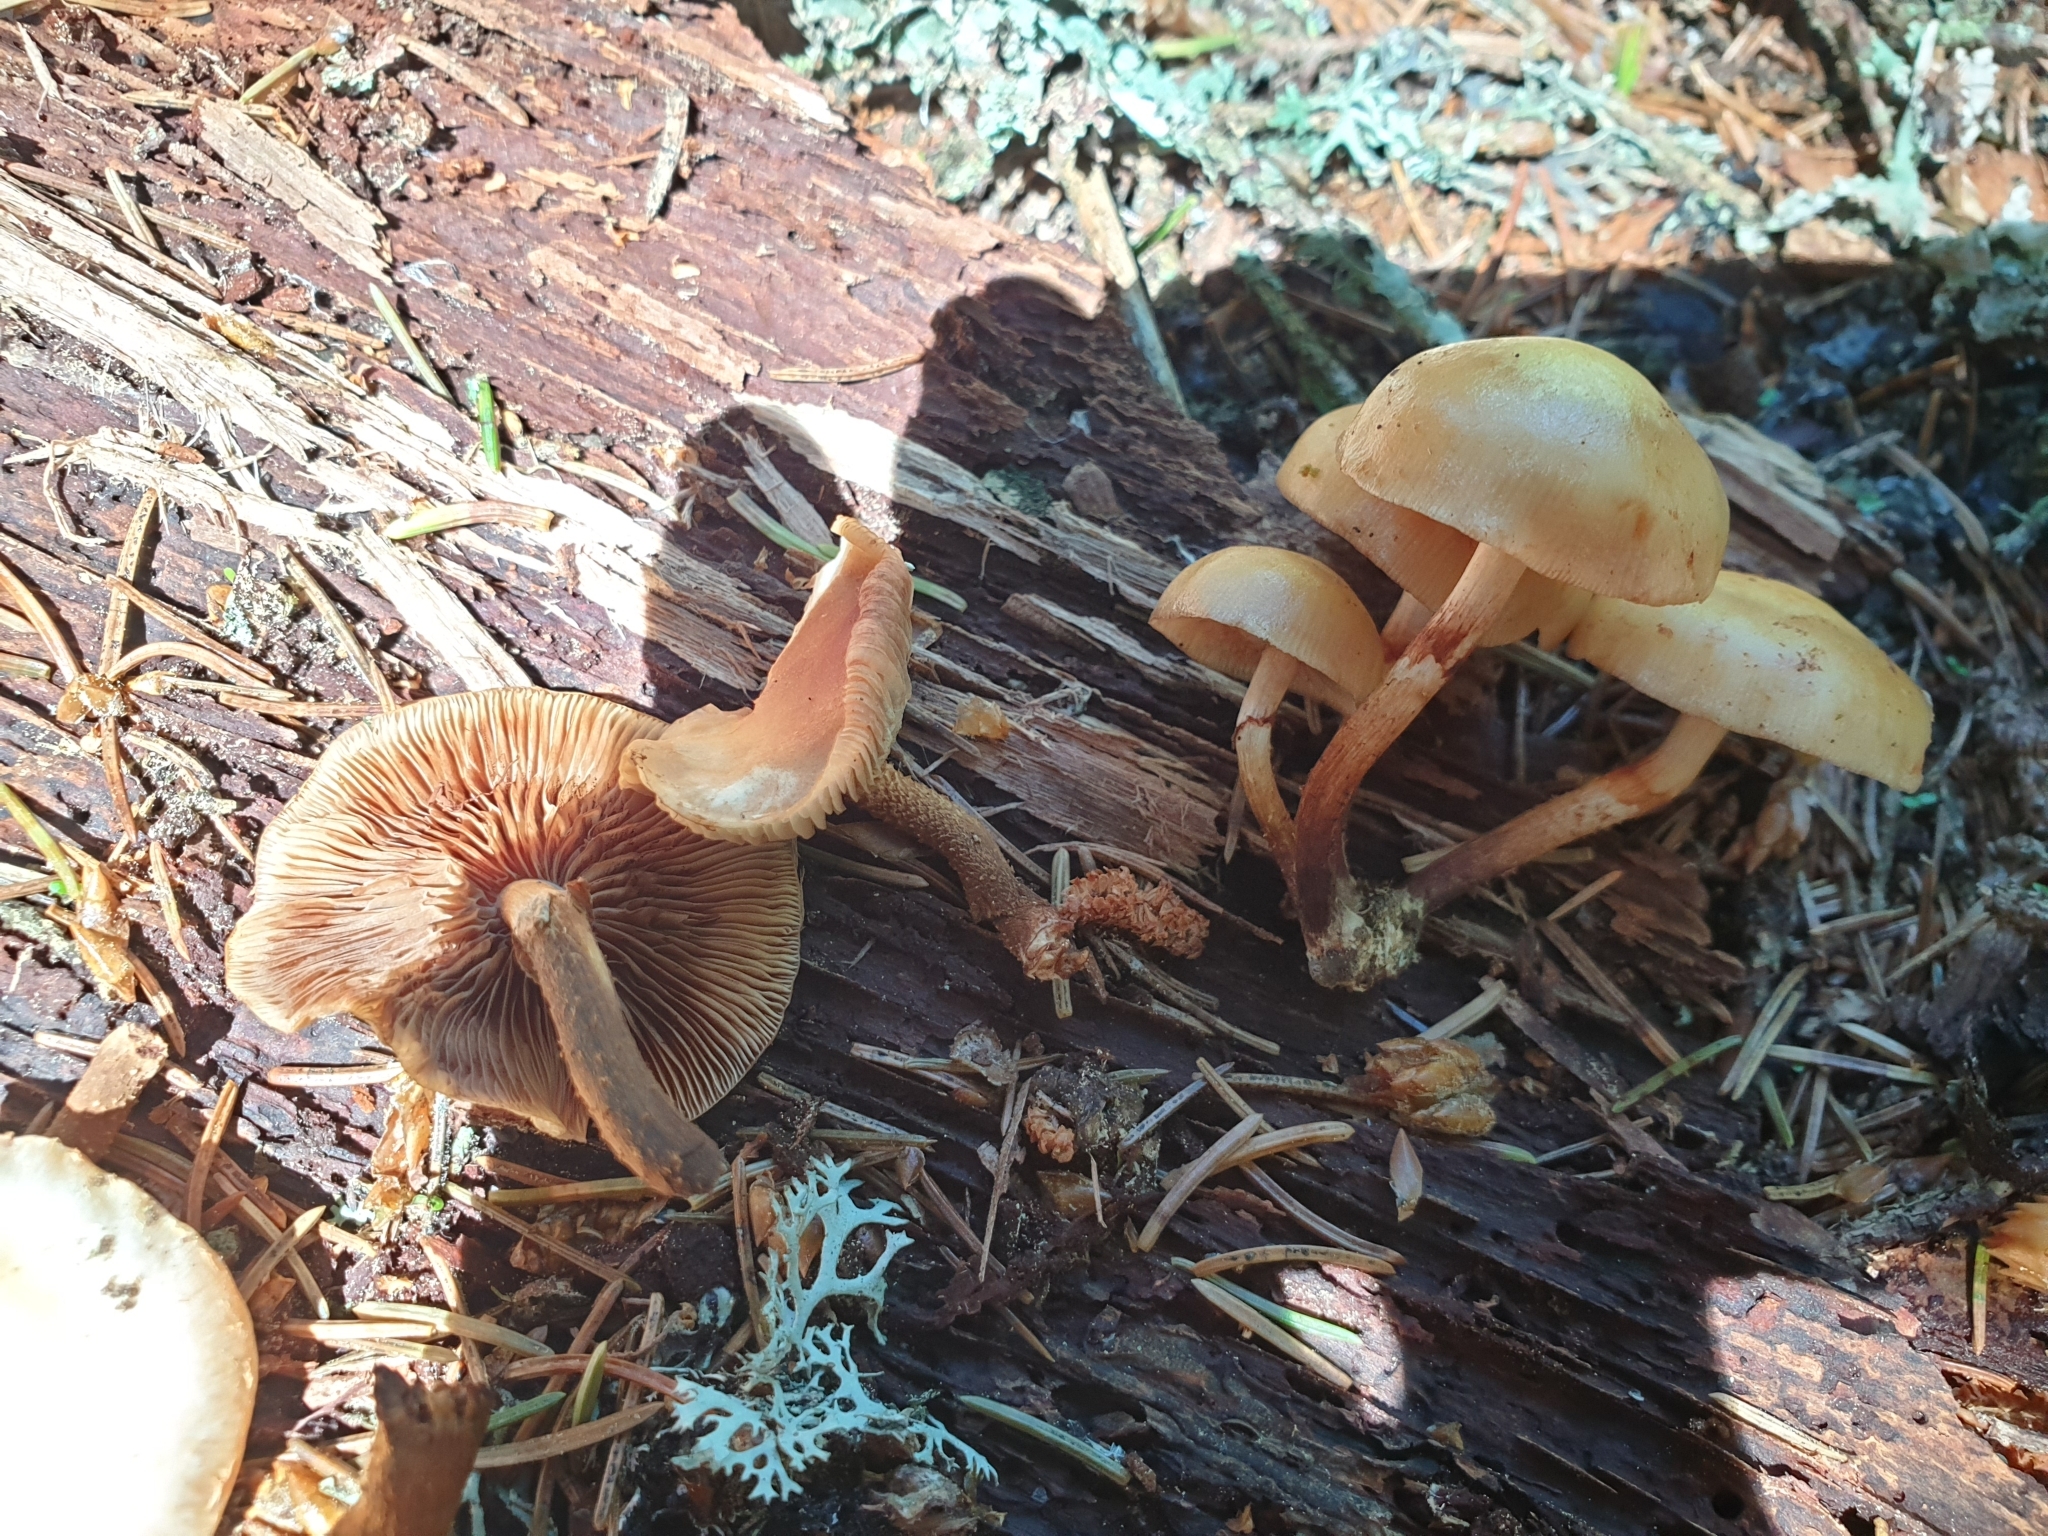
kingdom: Fungi
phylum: Basidiomycota
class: Agaricomycetes
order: Agaricales
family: Strophariaceae
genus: Kuehneromyces
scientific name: Kuehneromyces mutabilis
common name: Sheathed woodtuft
